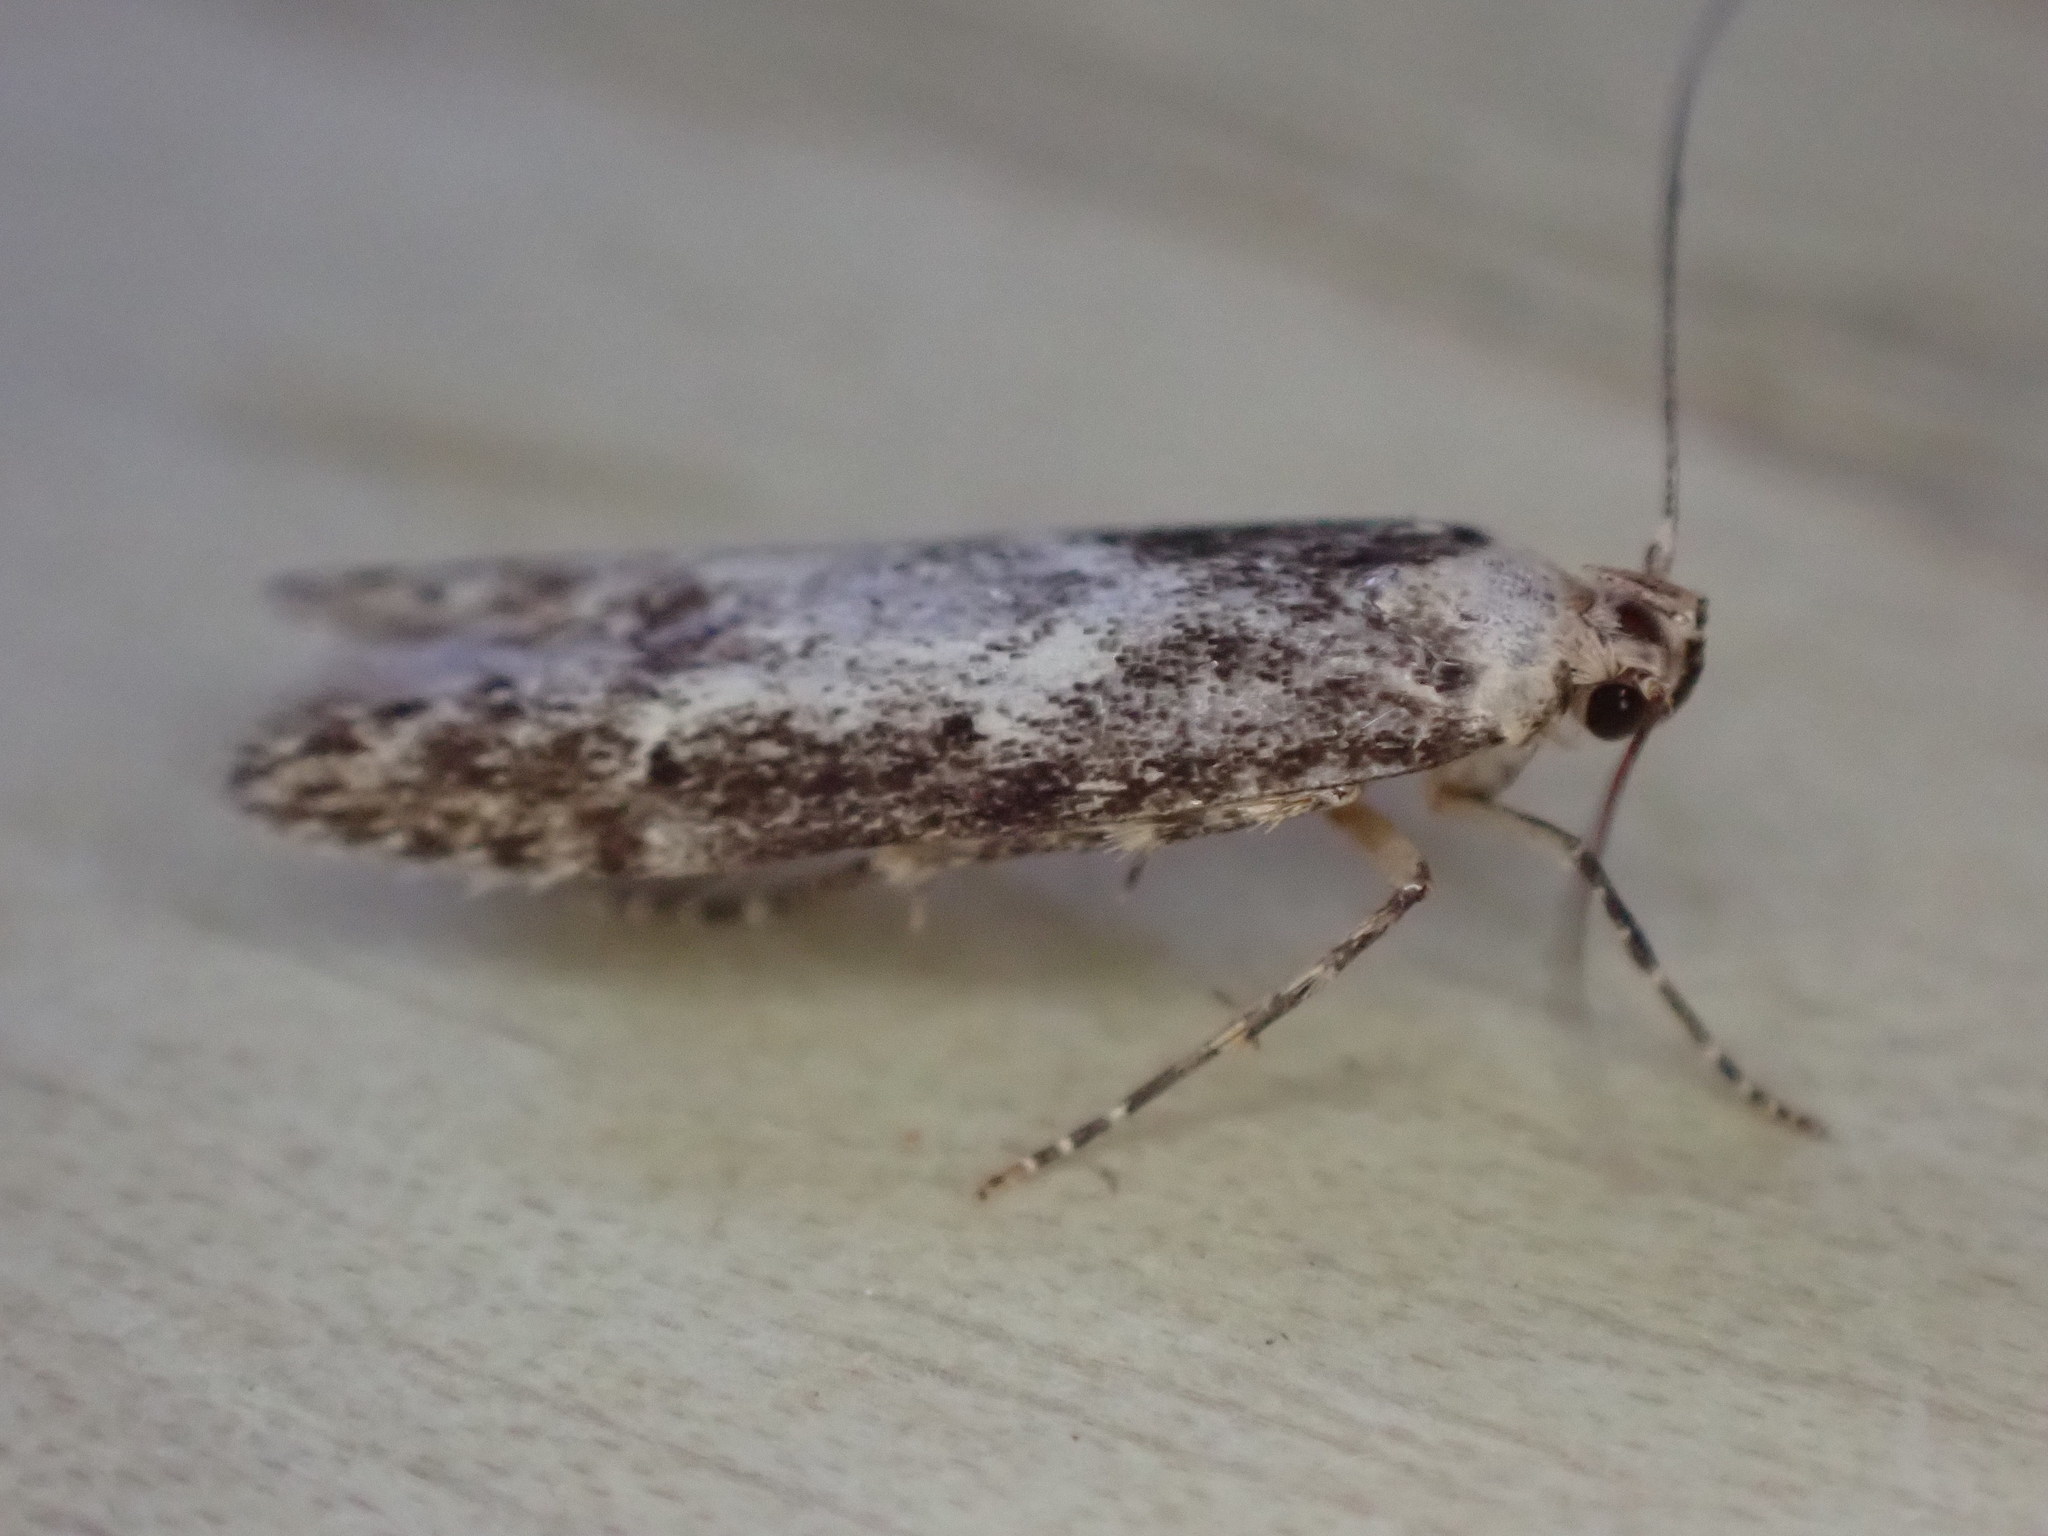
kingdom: Animalia
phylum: Arthropoda
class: Insecta
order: Lepidoptera
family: Blastobasidae
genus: Blastobasis
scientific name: Blastobasis adustella
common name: Dingy dowd
